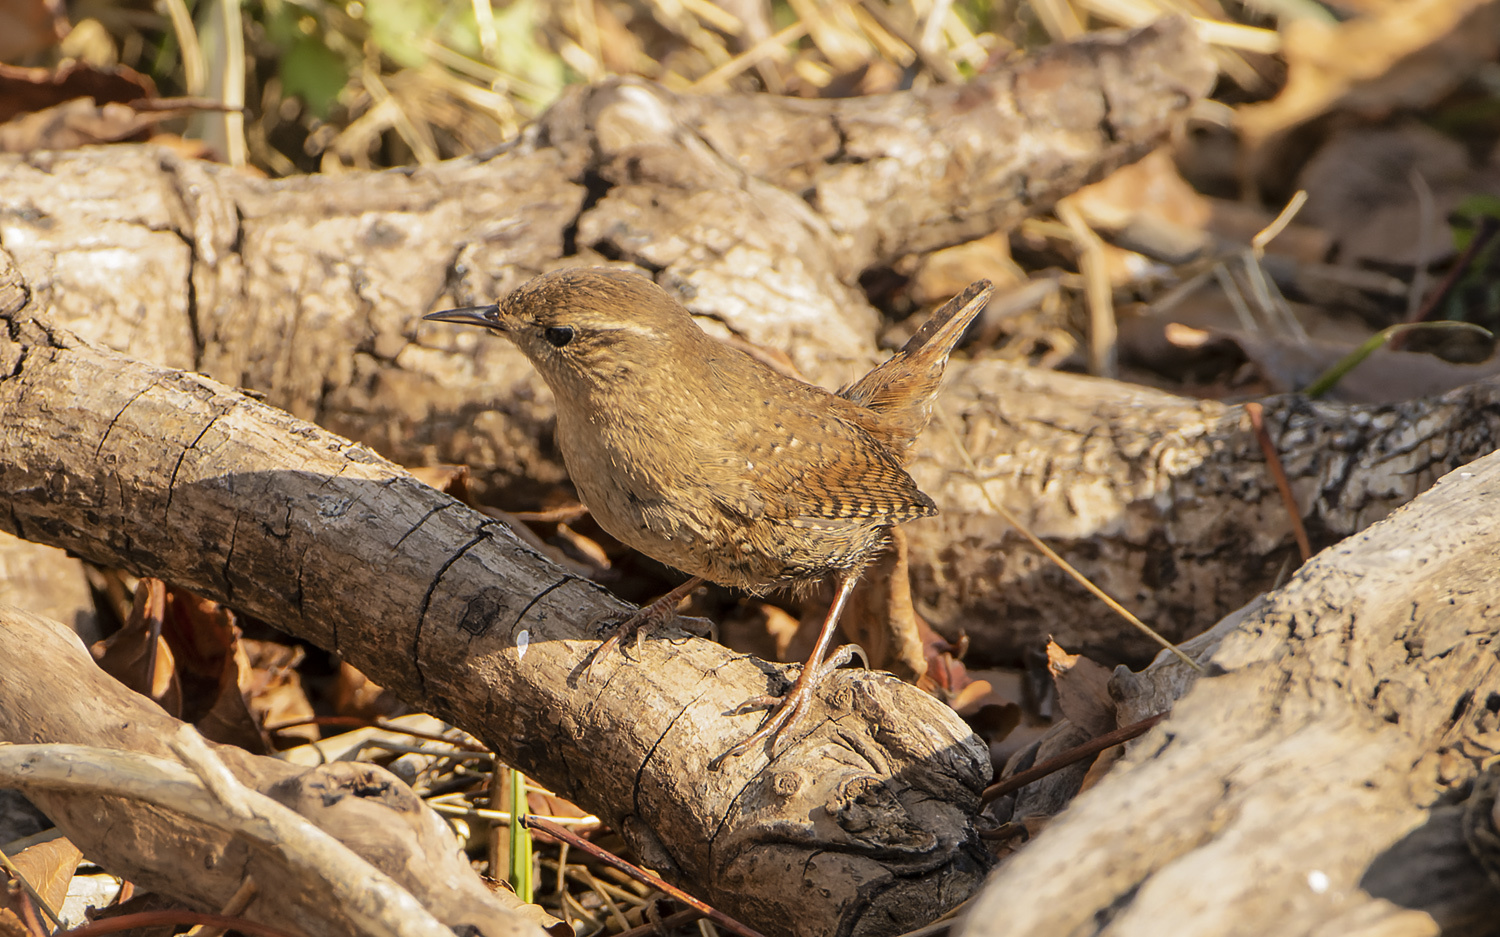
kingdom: Animalia
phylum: Chordata
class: Aves
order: Passeriformes
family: Troglodytidae
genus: Troglodytes
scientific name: Troglodytes hiemalis
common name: Winter wren
